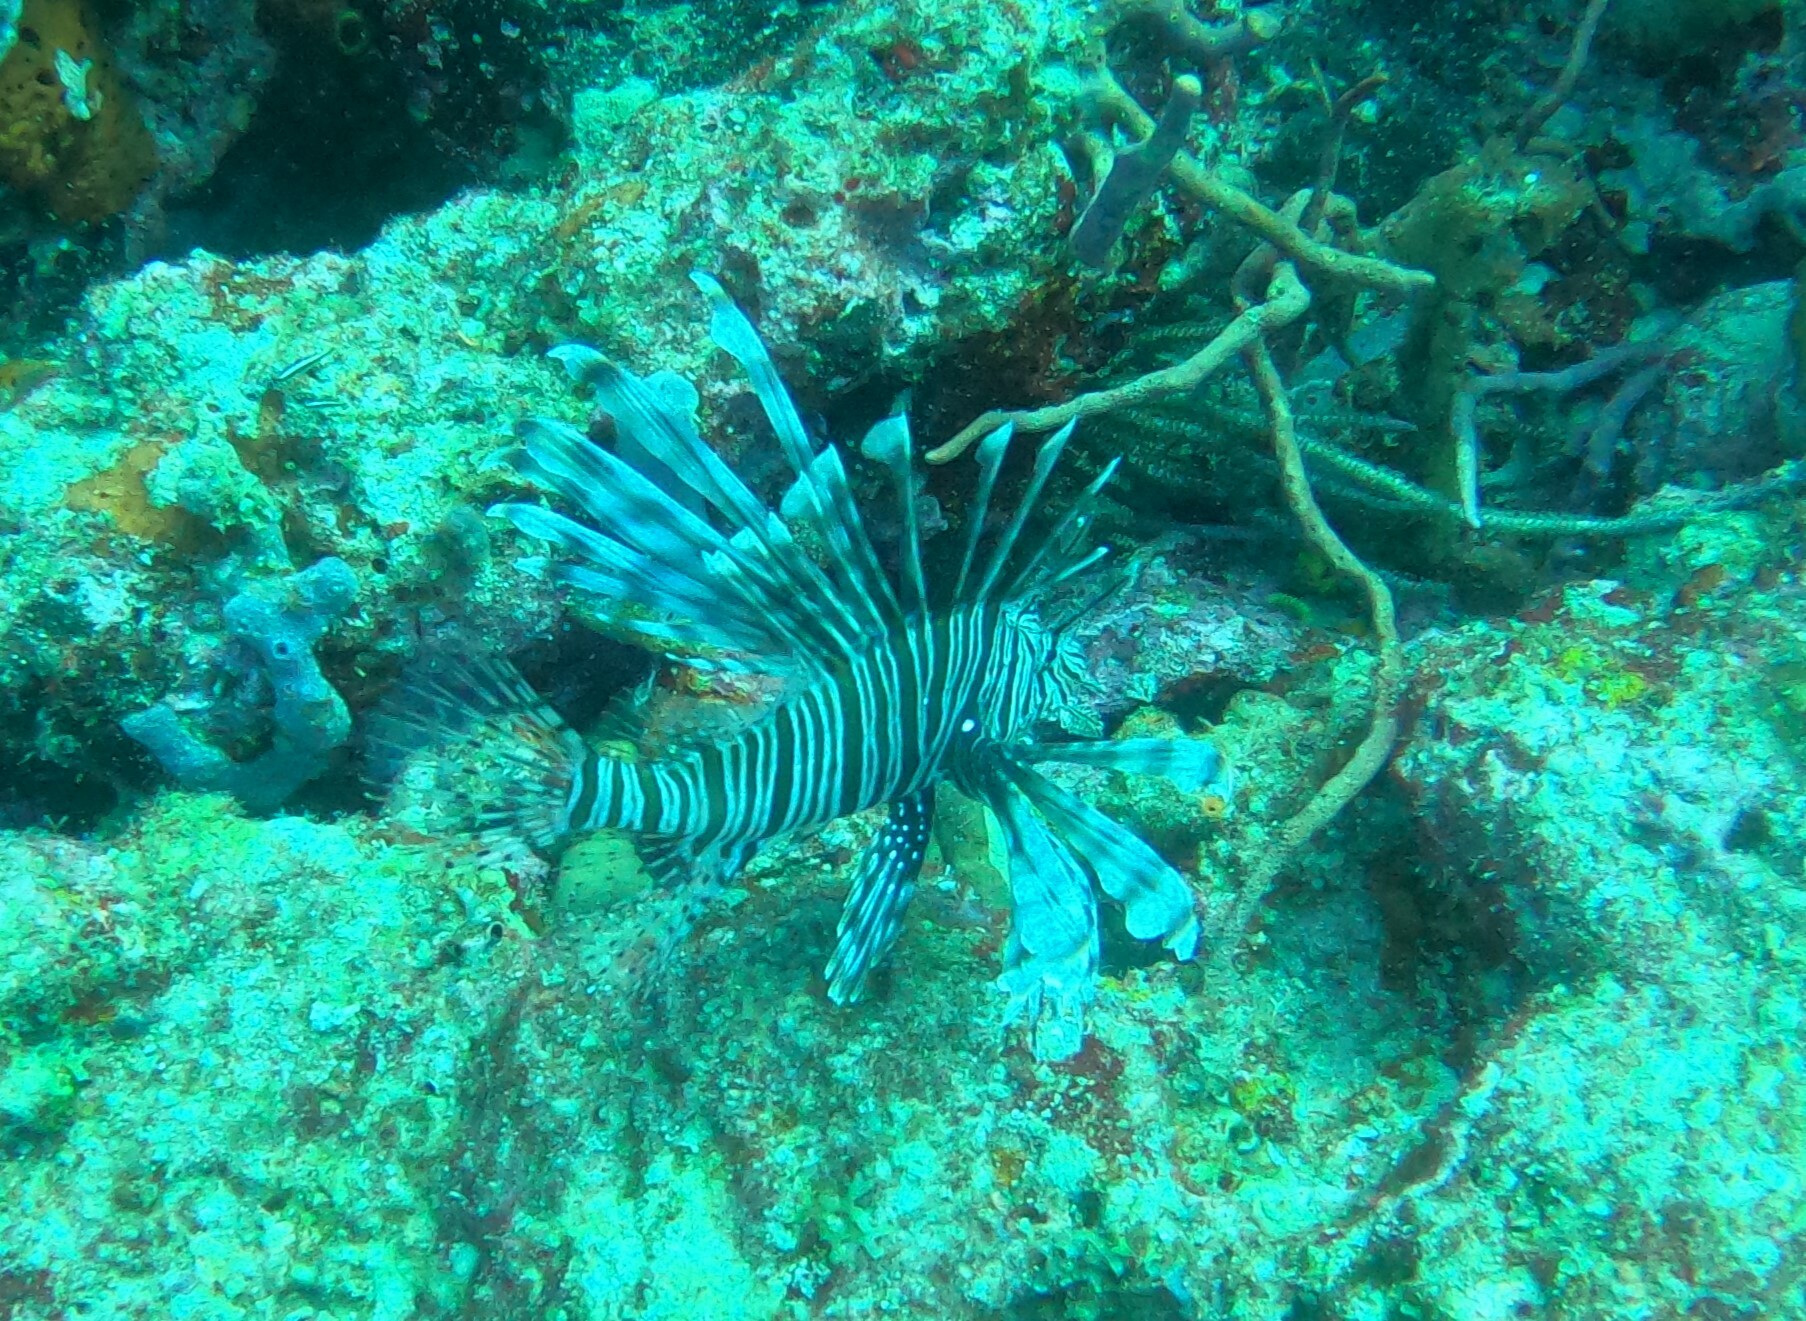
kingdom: Animalia
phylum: Chordata
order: Scorpaeniformes
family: Scorpaenidae
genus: Pterois
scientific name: Pterois volitans
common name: Lionfish
